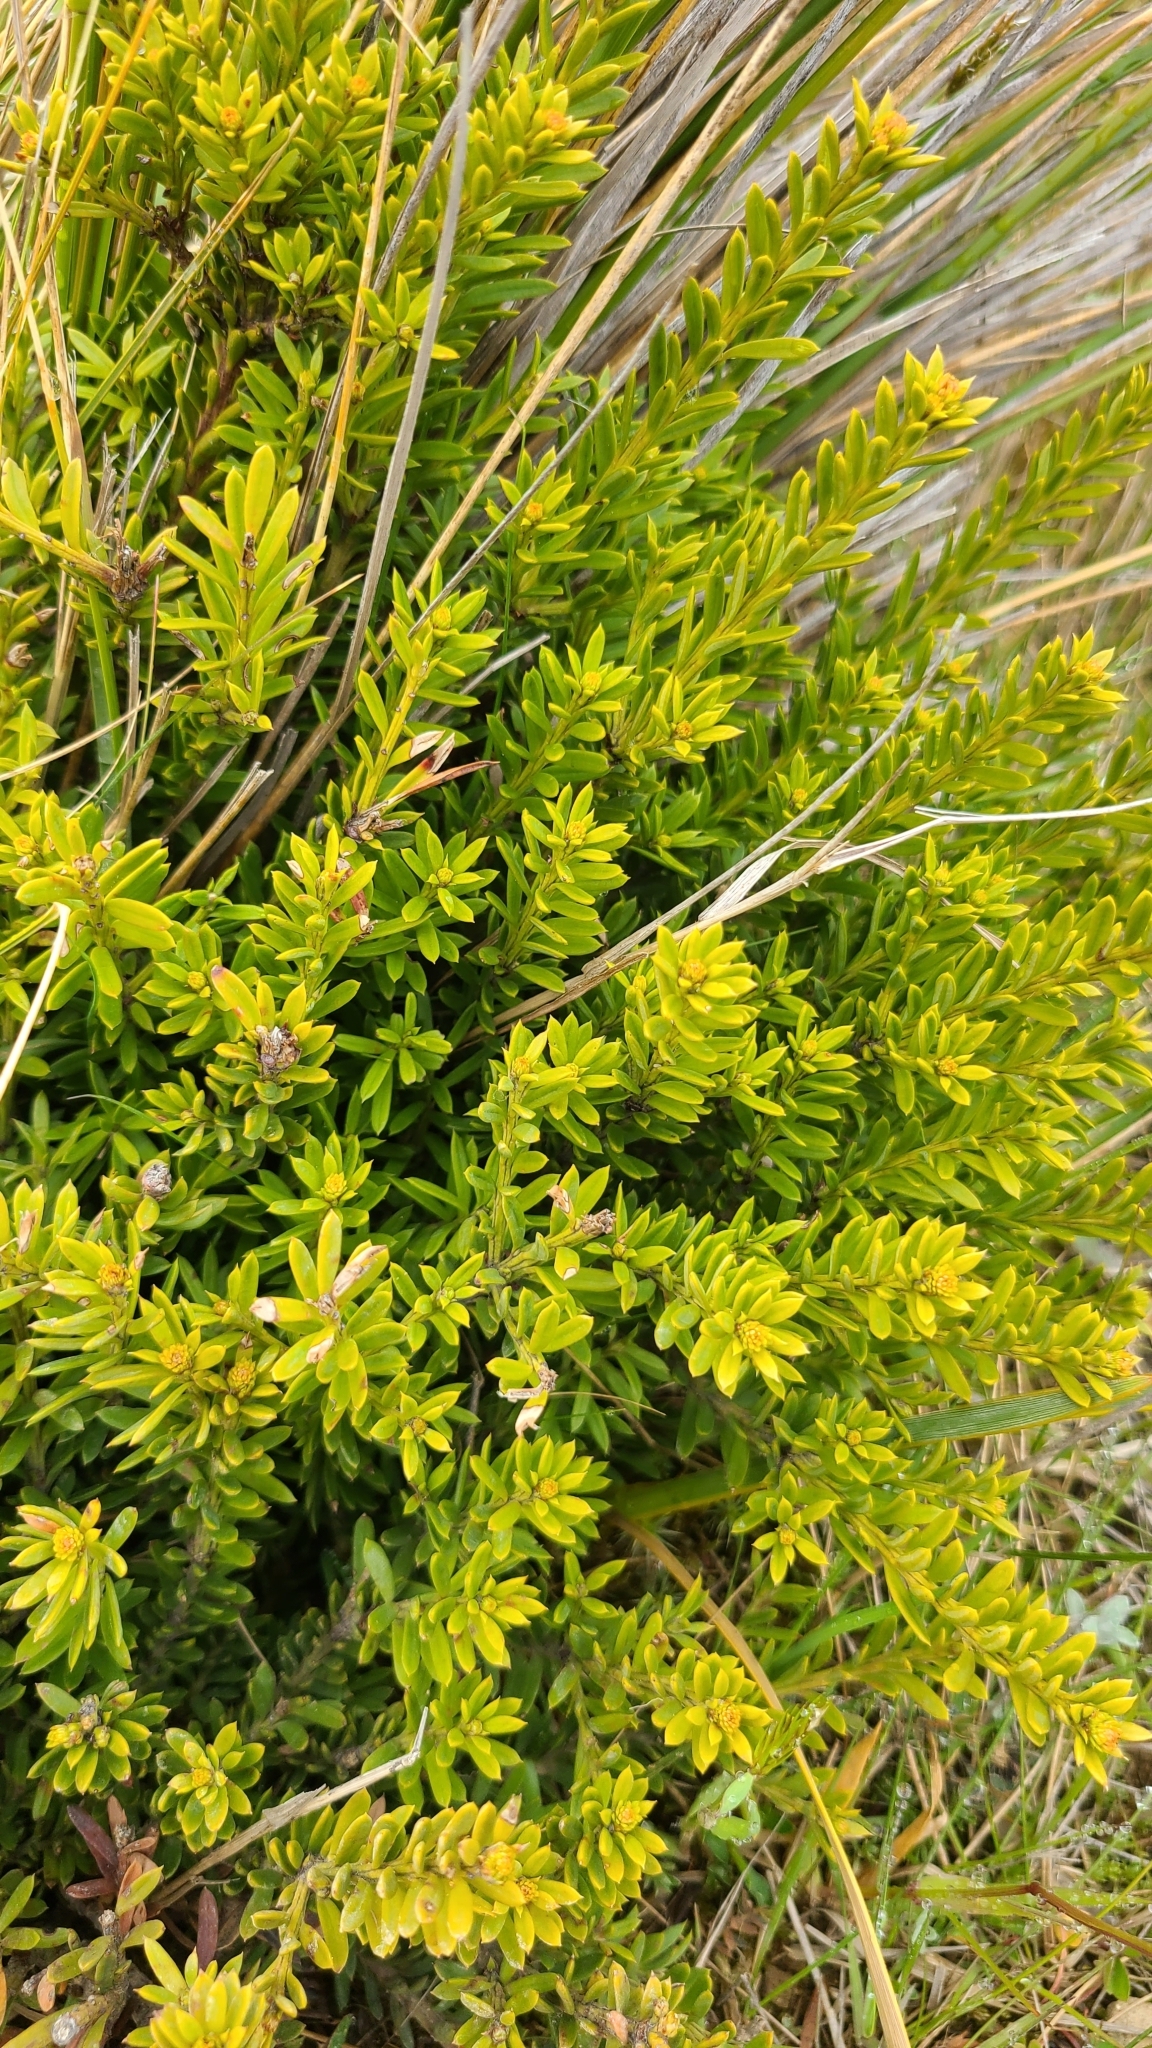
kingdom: Plantae
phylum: Tracheophyta
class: Pinopsida
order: Pinales
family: Podocarpaceae
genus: Podocarpus
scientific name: Podocarpus nivalis
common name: Alpine totara
